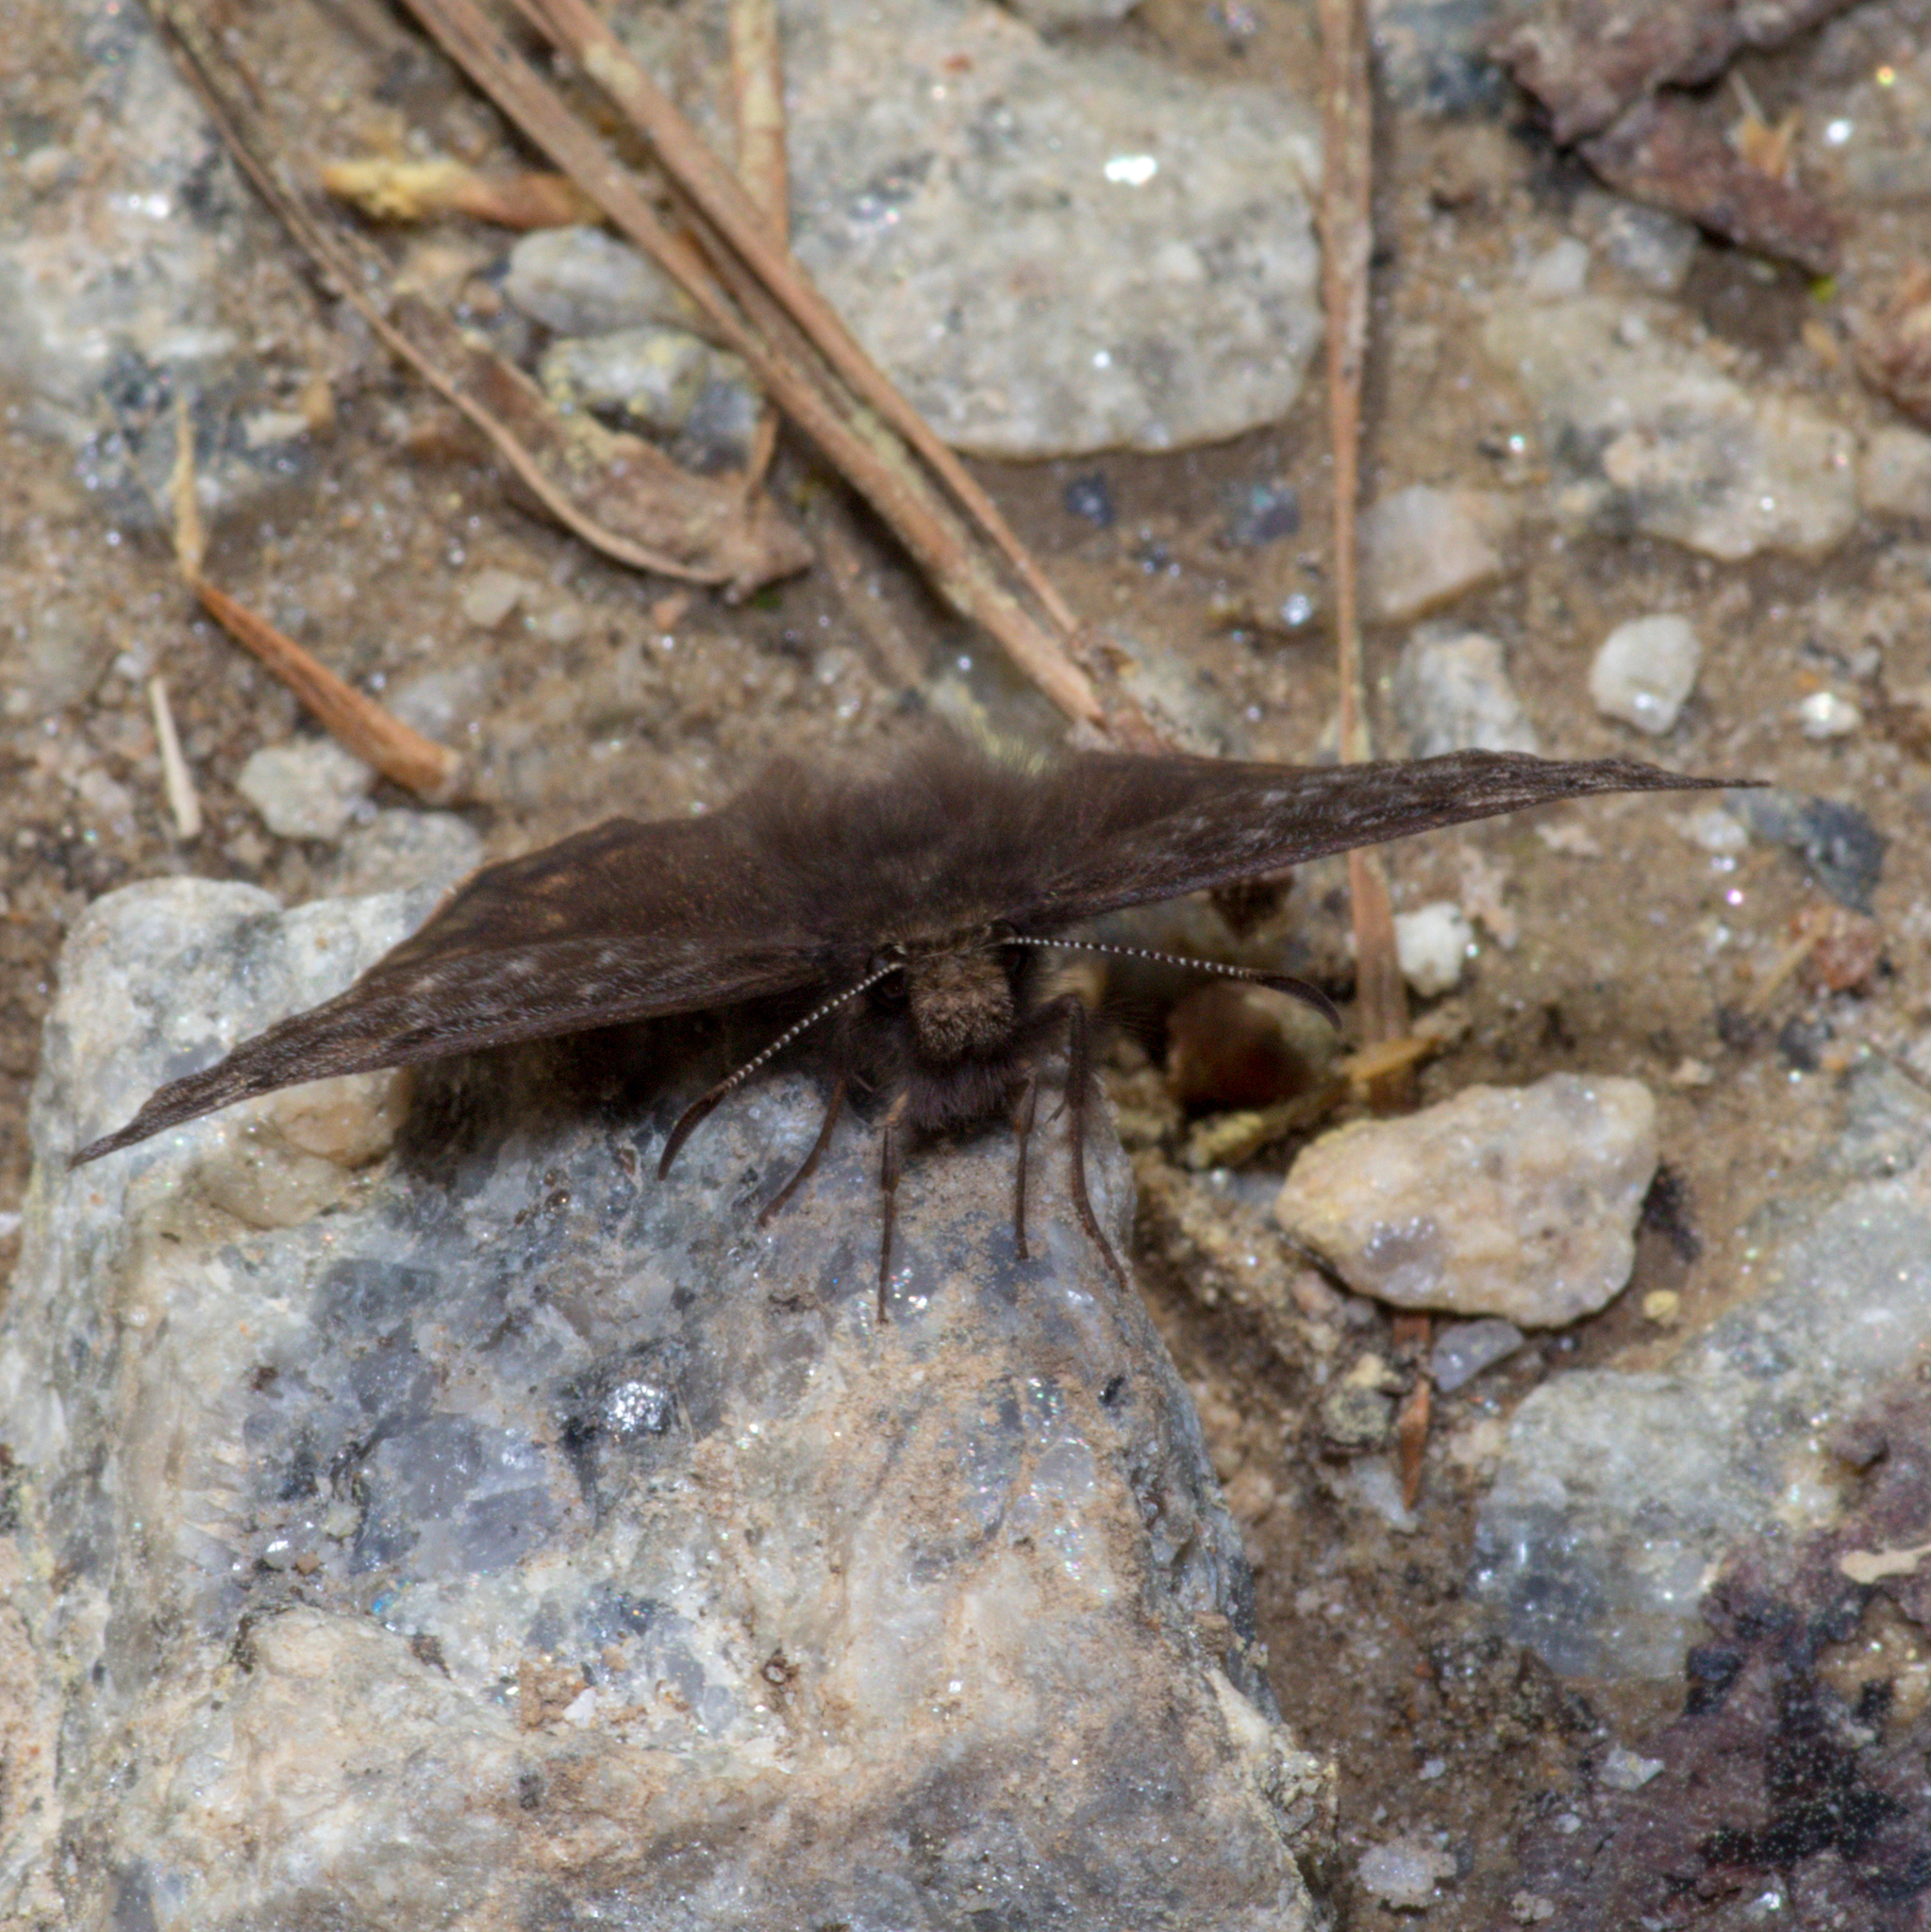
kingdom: Animalia
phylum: Arthropoda
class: Insecta
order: Lepidoptera
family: Hesperiidae
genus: Erynnis
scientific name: Erynnis juvenalis
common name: Juvenal's duskywing
